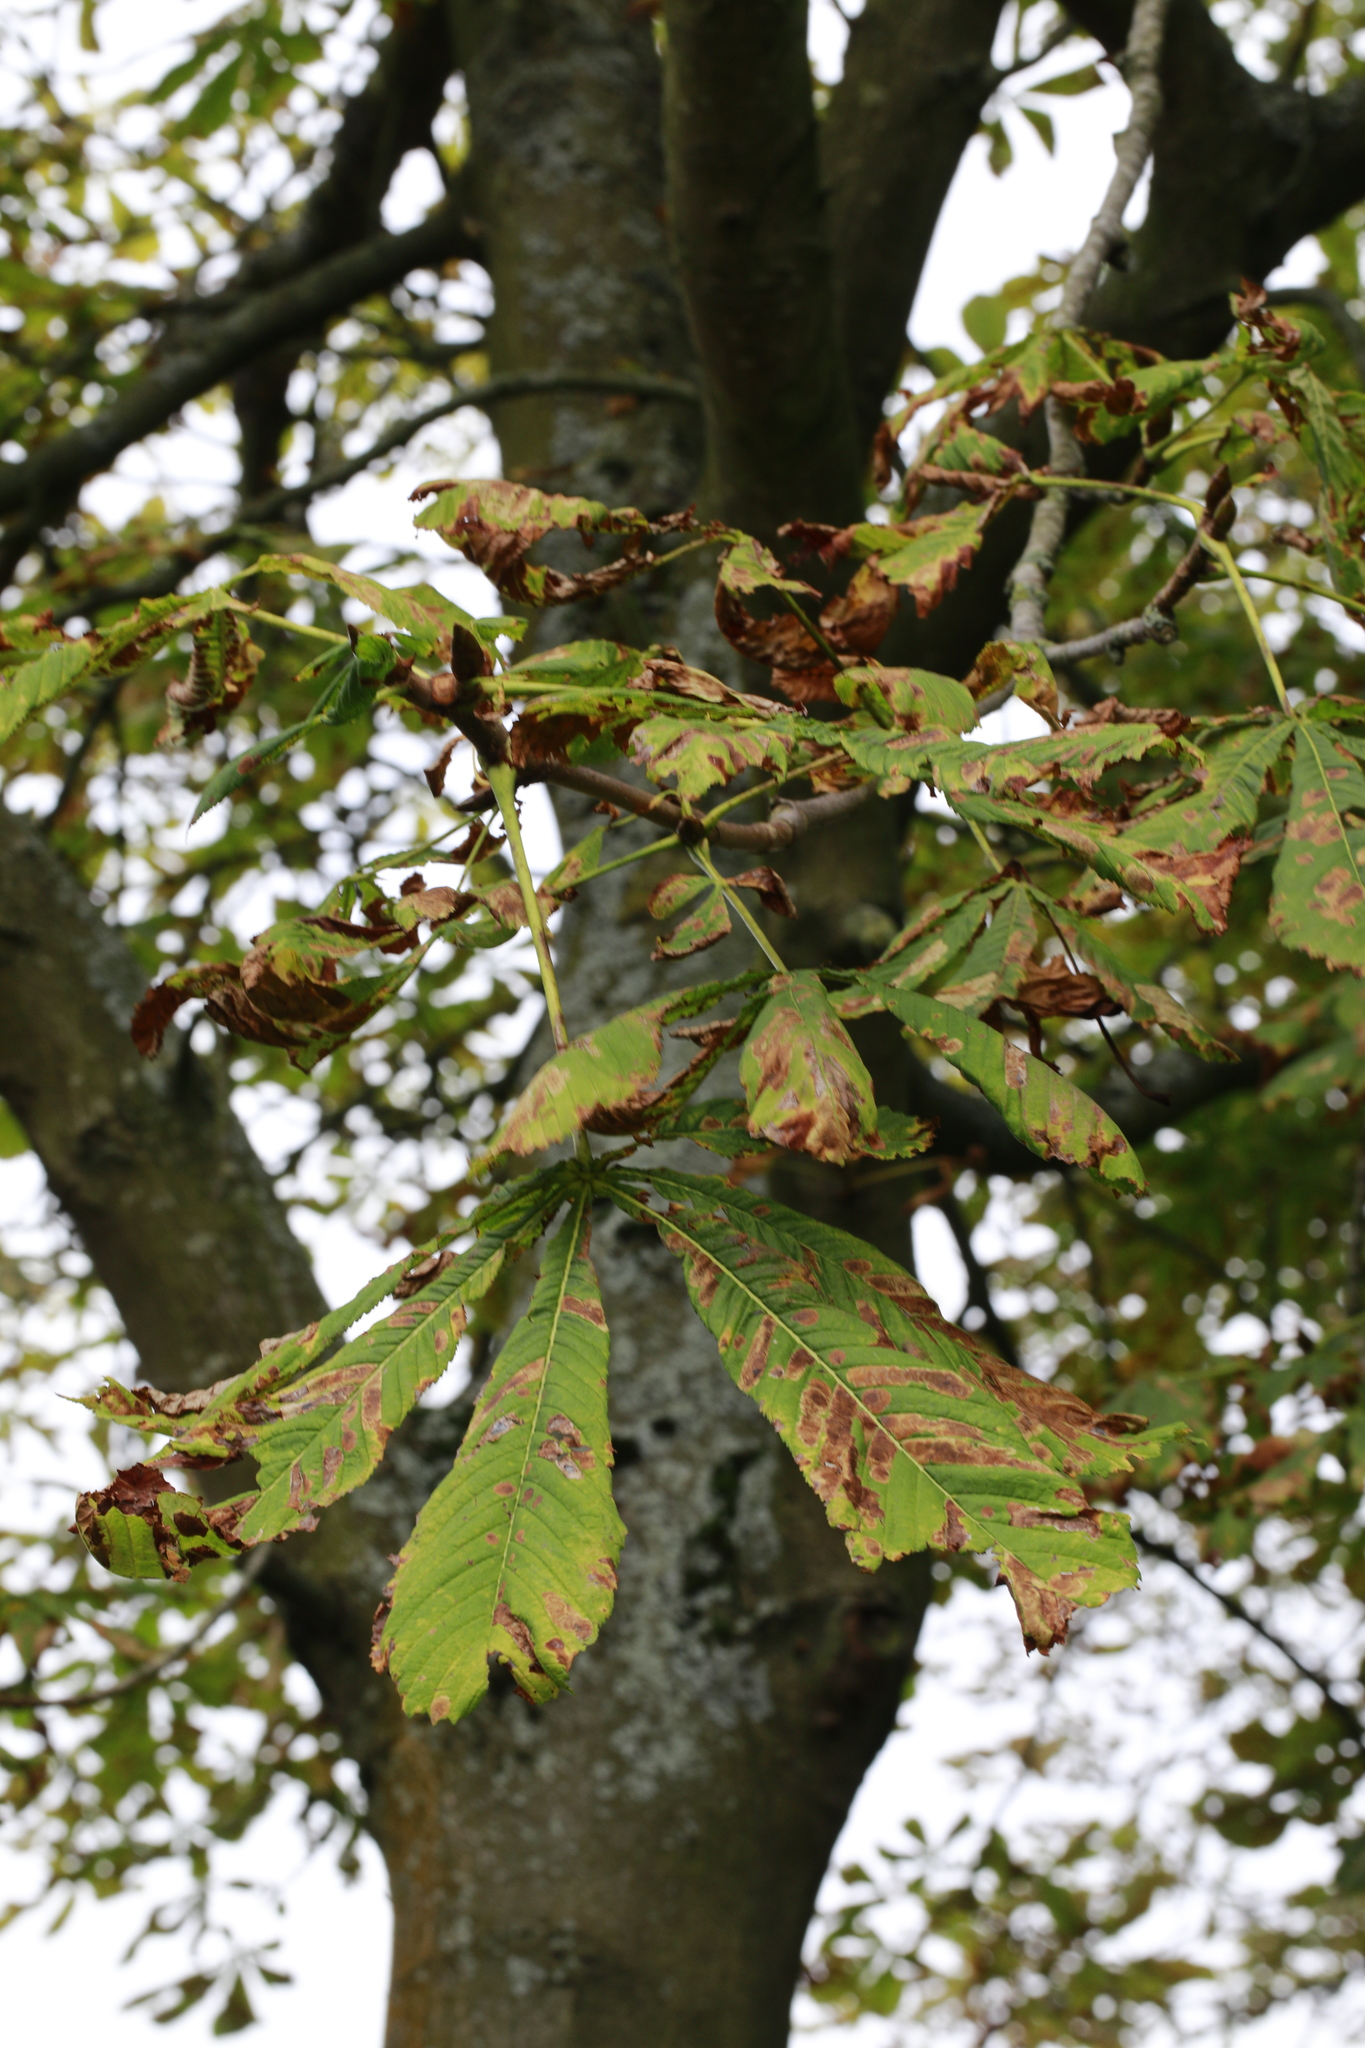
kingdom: Animalia
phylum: Arthropoda
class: Insecta
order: Lepidoptera
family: Gracillariidae
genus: Cameraria
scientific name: Cameraria ohridella
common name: Horse-chestnut leaf-miner
